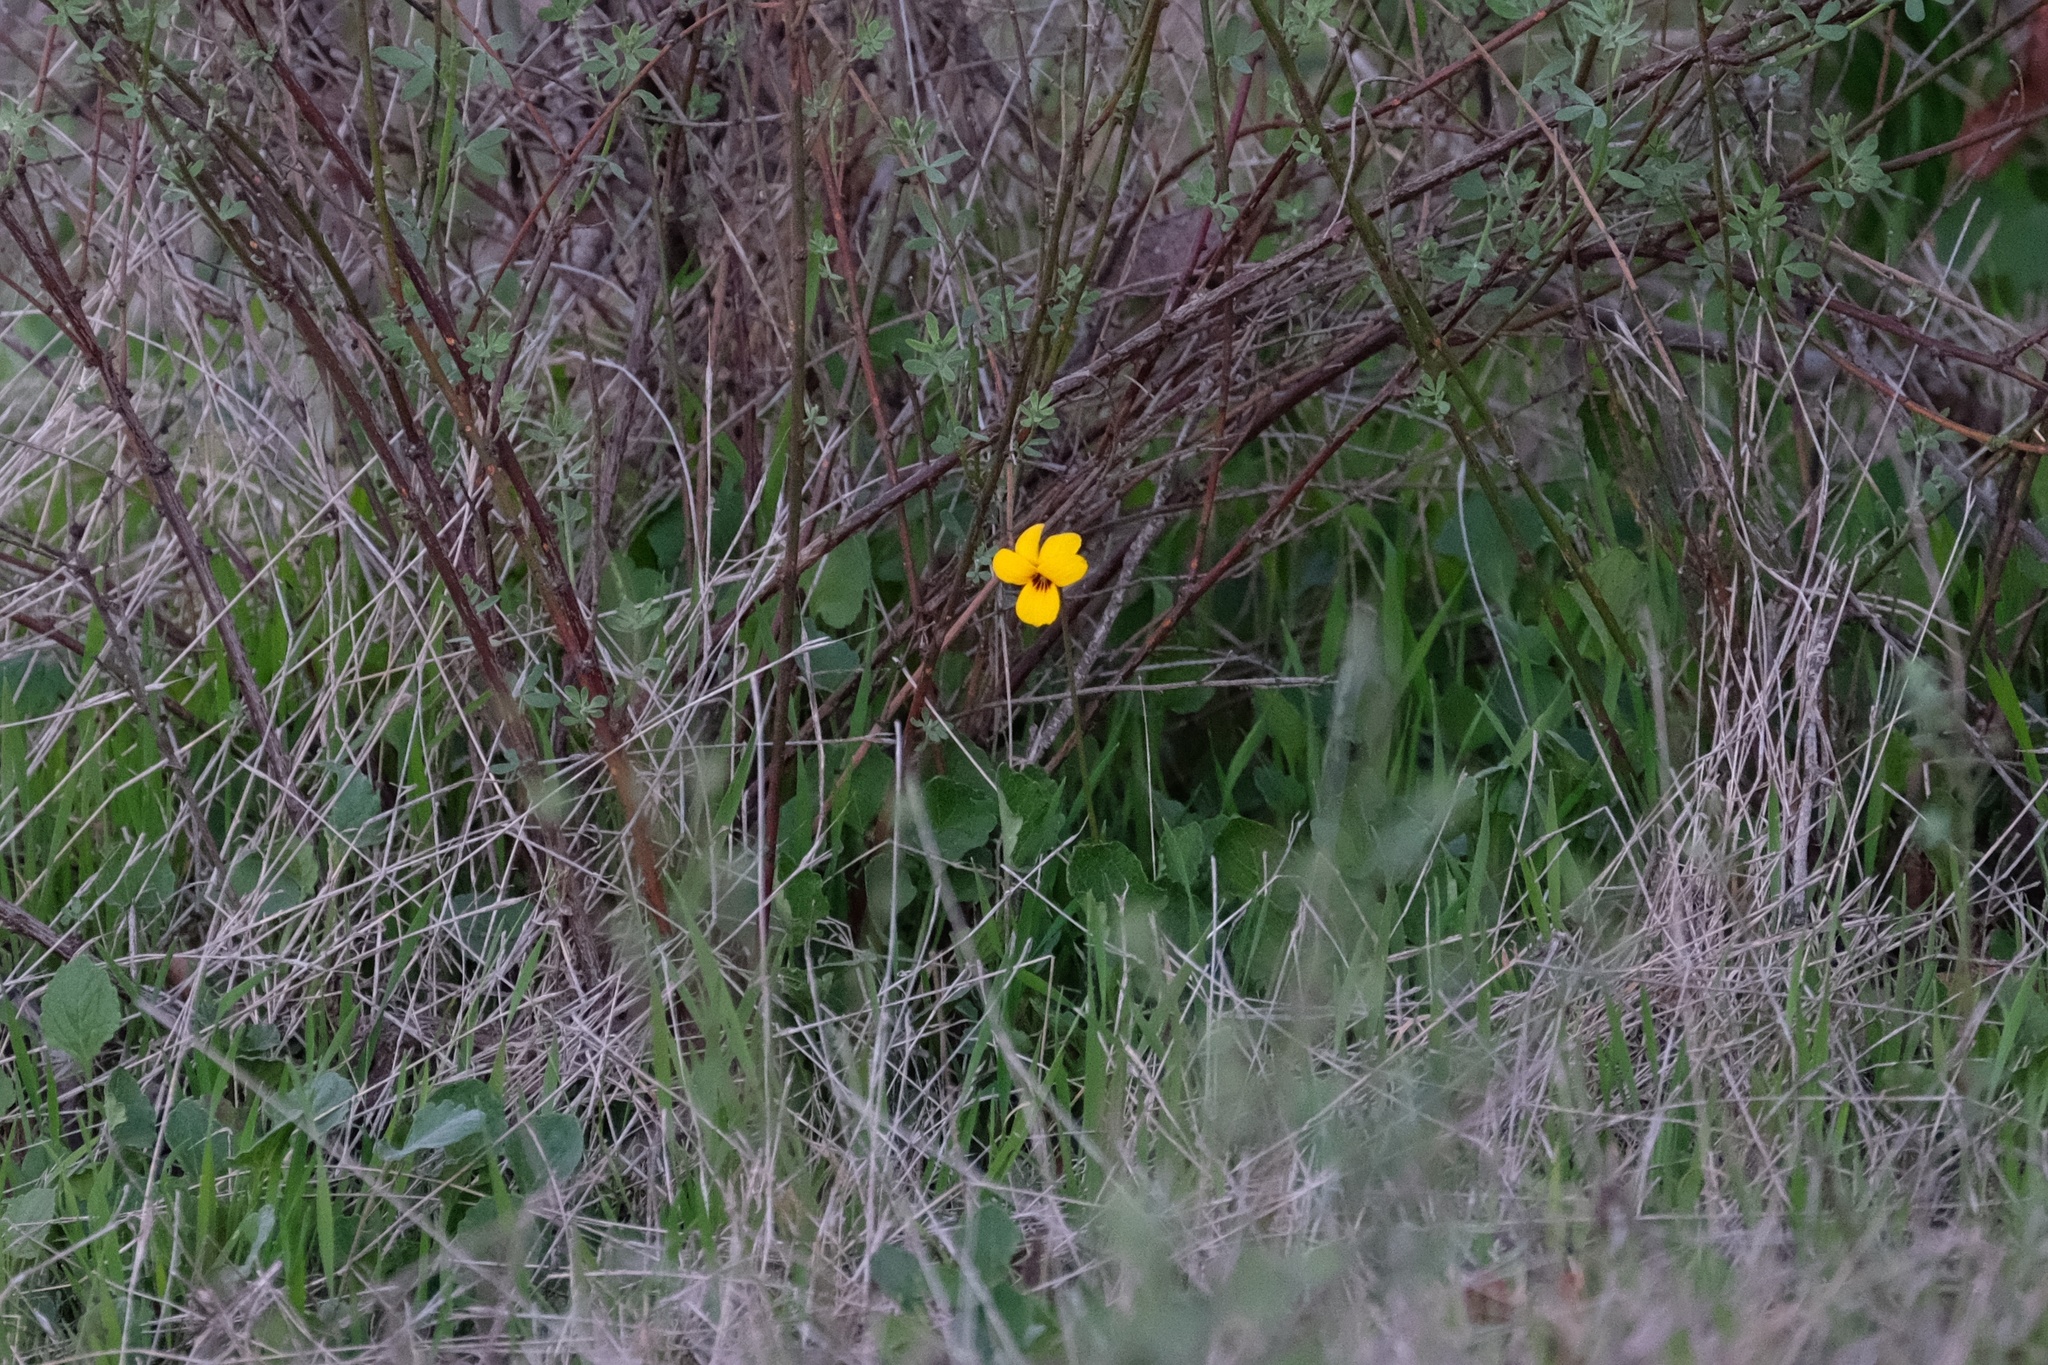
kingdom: Plantae
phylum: Tracheophyta
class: Magnoliopsida
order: Malpighiales
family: Violaceae
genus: Viola
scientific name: Viola pedunculata
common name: California golden violet
